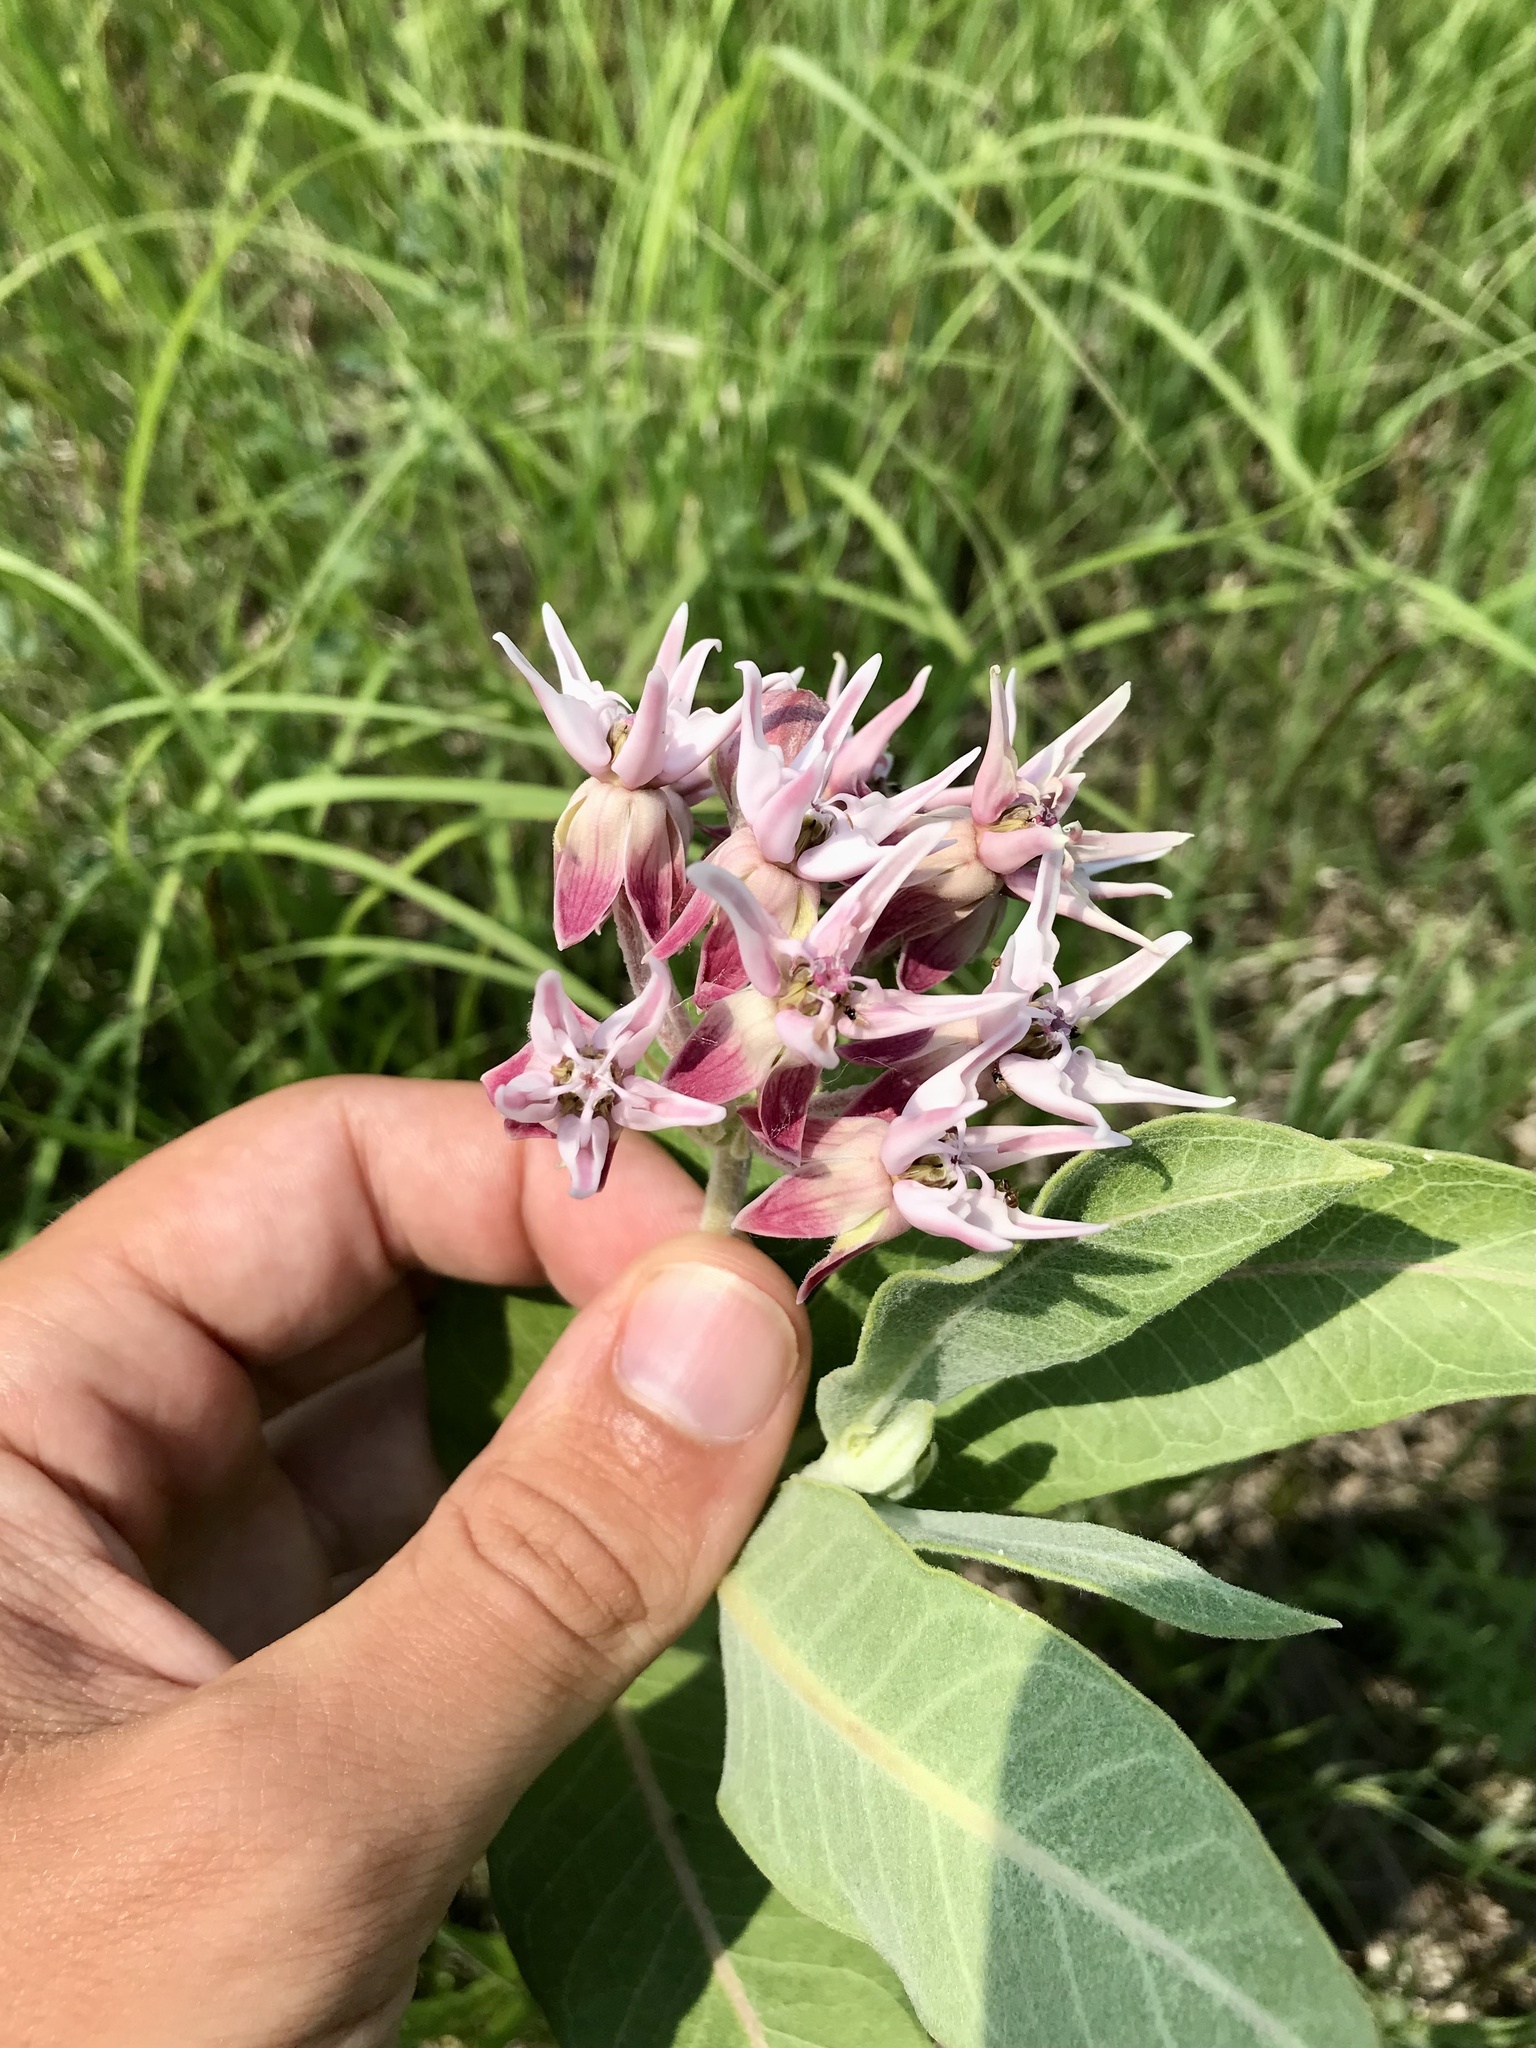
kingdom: Plantae
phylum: Tracheophyta
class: Magnoliopsida
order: Gentianales
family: Apocynaceae
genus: Asclepias
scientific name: Asclepias speciosa
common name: Showy milkweed
